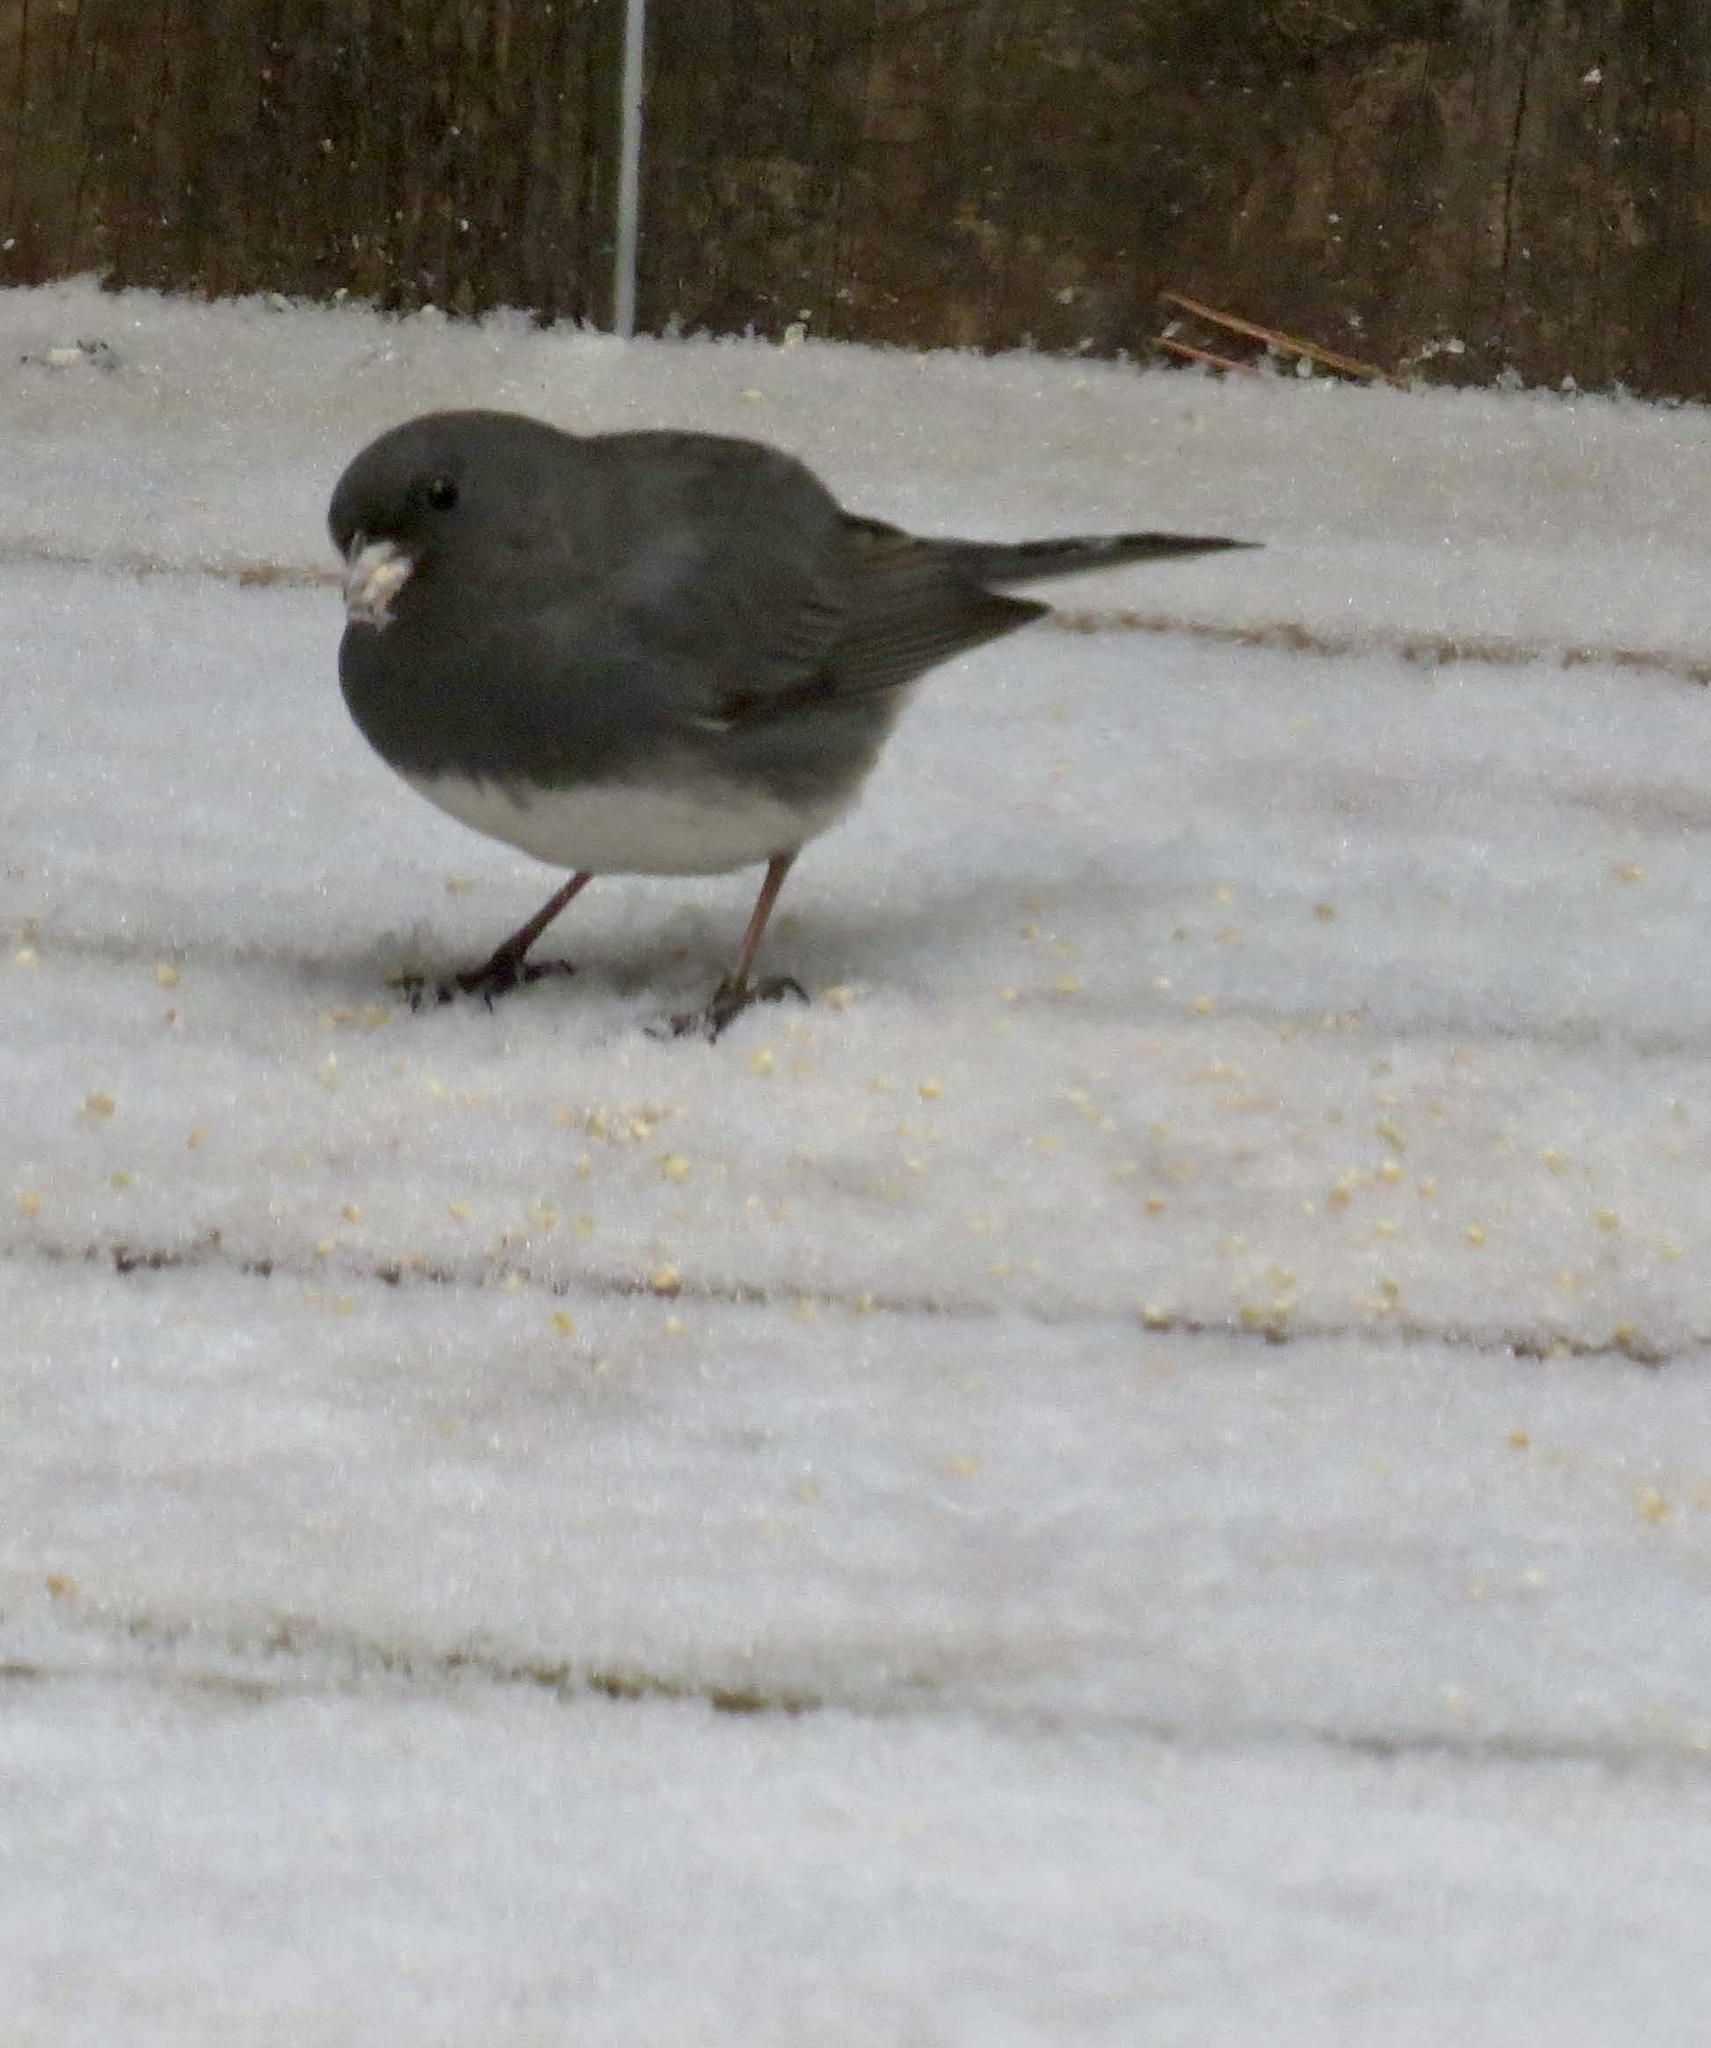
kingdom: Animalia
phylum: Chordata
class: Aves
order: Passeriformes
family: Passerellidae
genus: Junco
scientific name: Junco hyemalis
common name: Dark-eyed junco
